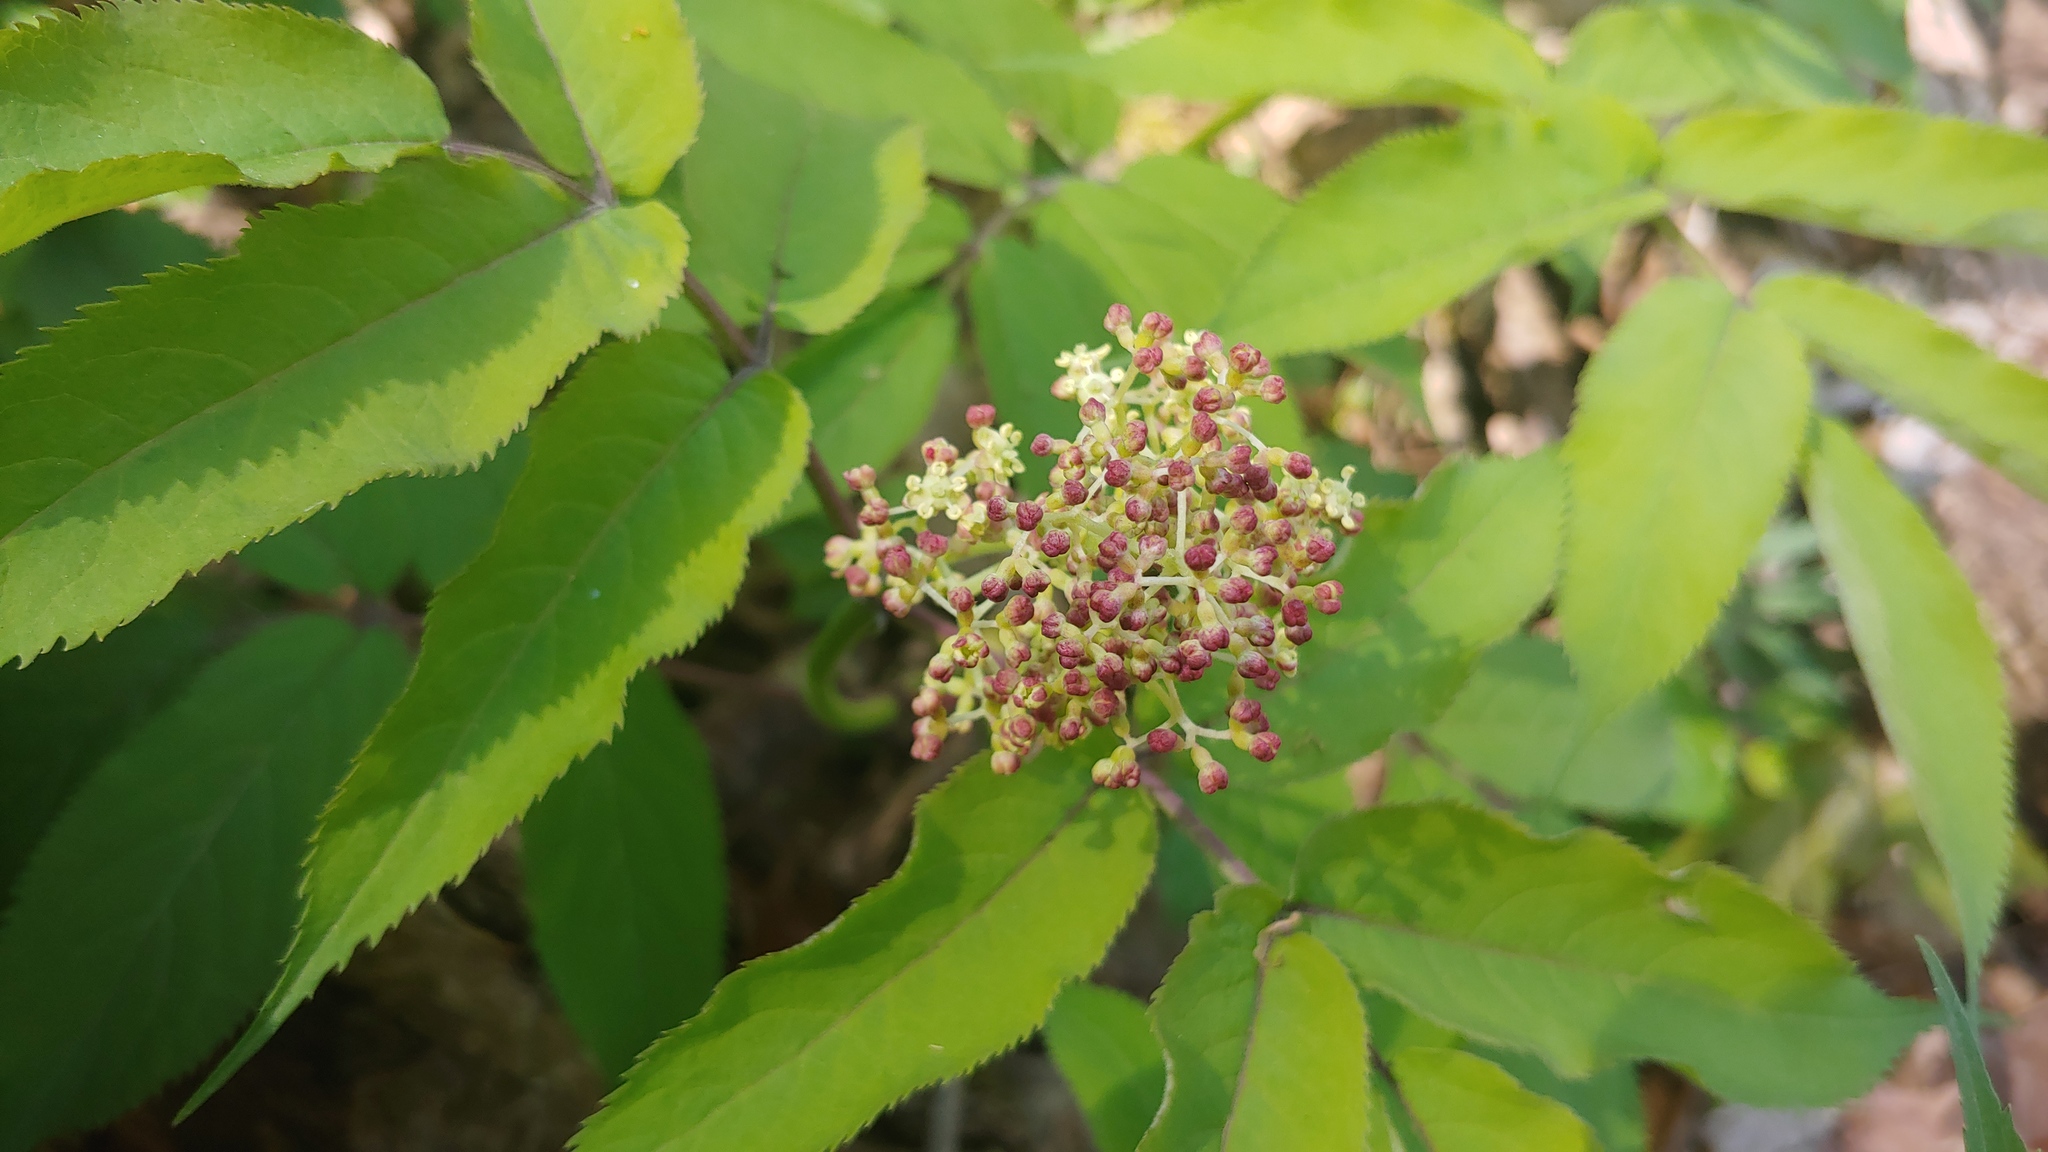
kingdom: Plantae
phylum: Tracheophyta
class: Magnoliopsida
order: Dipsacales
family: Viburnaceae
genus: Sambucus
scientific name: Sambucus racemosa
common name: Red-berried elder
